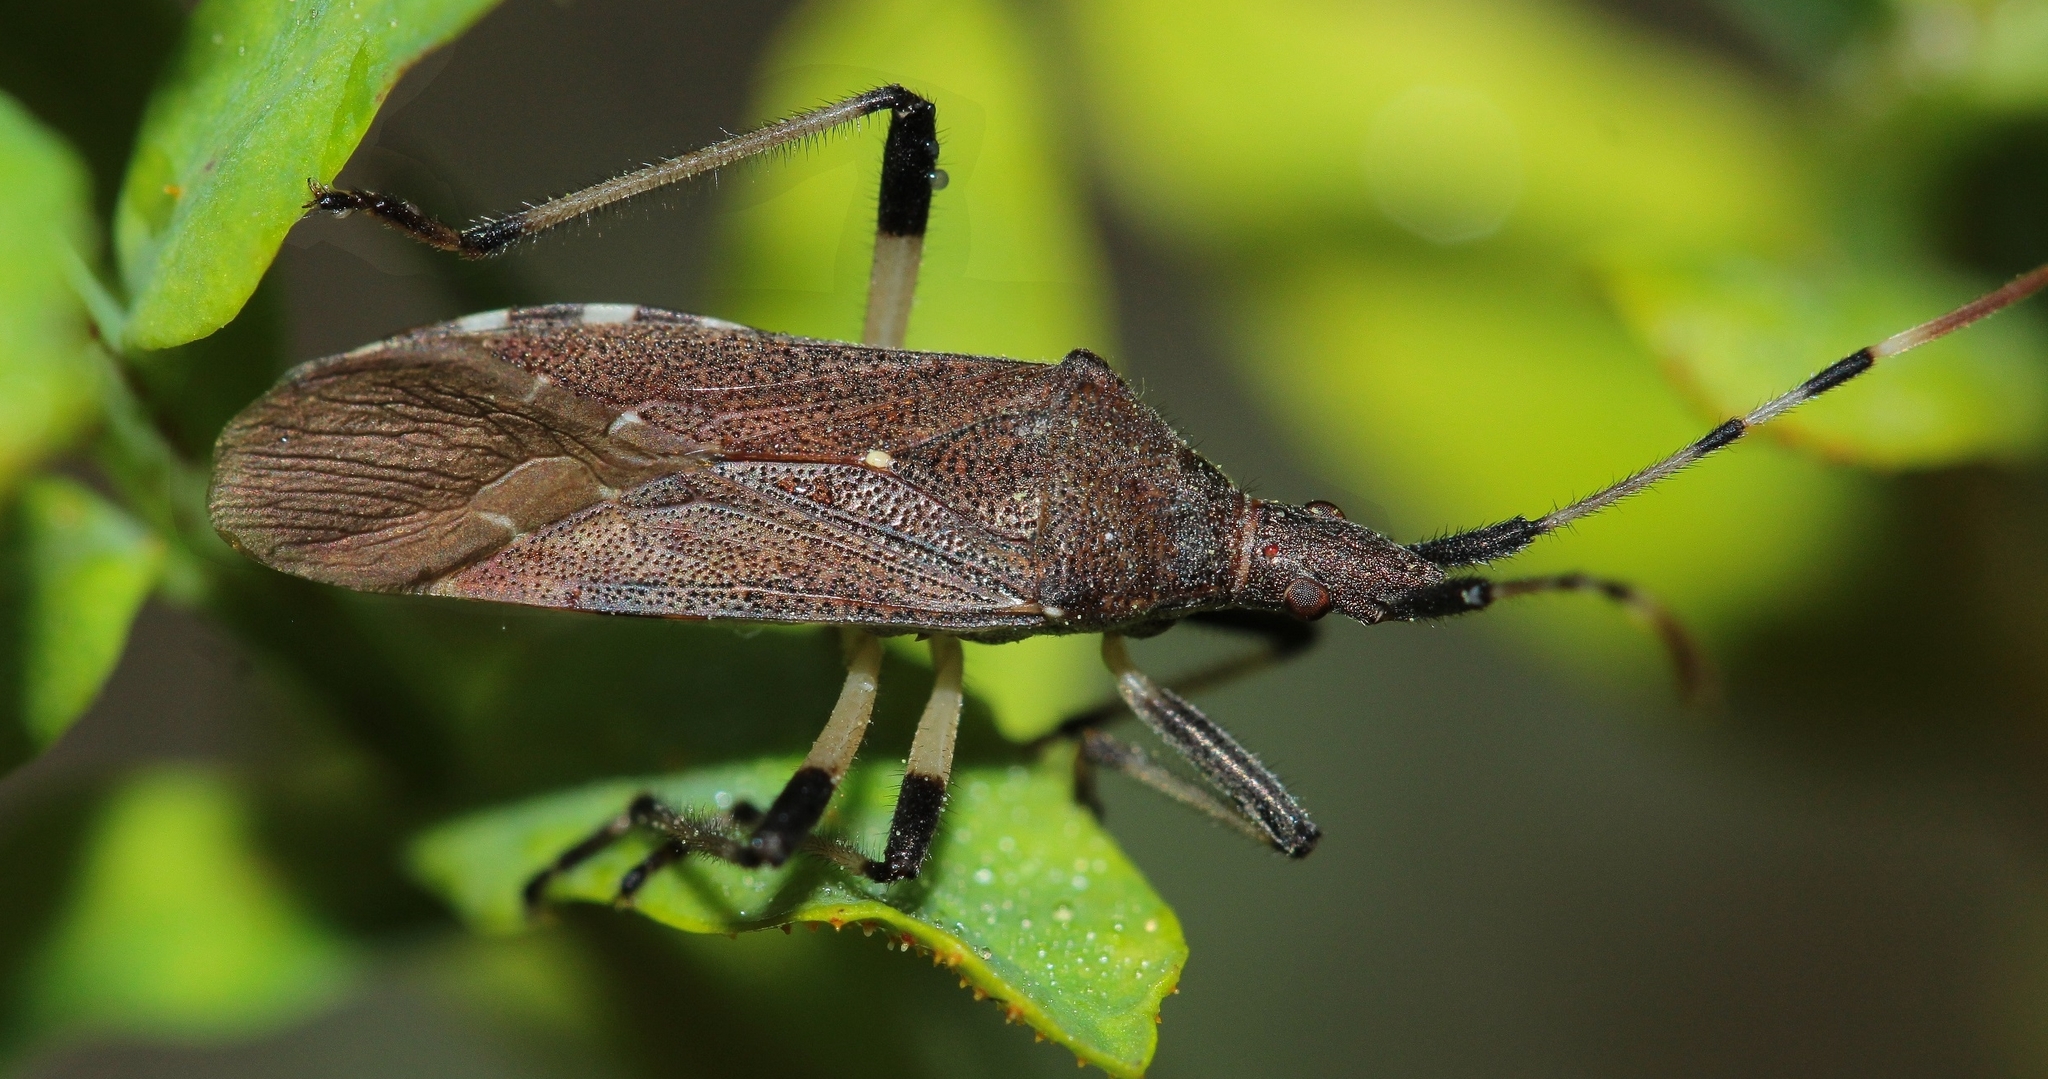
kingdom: Animalia
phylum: Arthropoda
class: Insecta
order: Hemiptera
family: Stenocephalidae
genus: Dicranocephalus
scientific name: Dicranocephalus albipes
